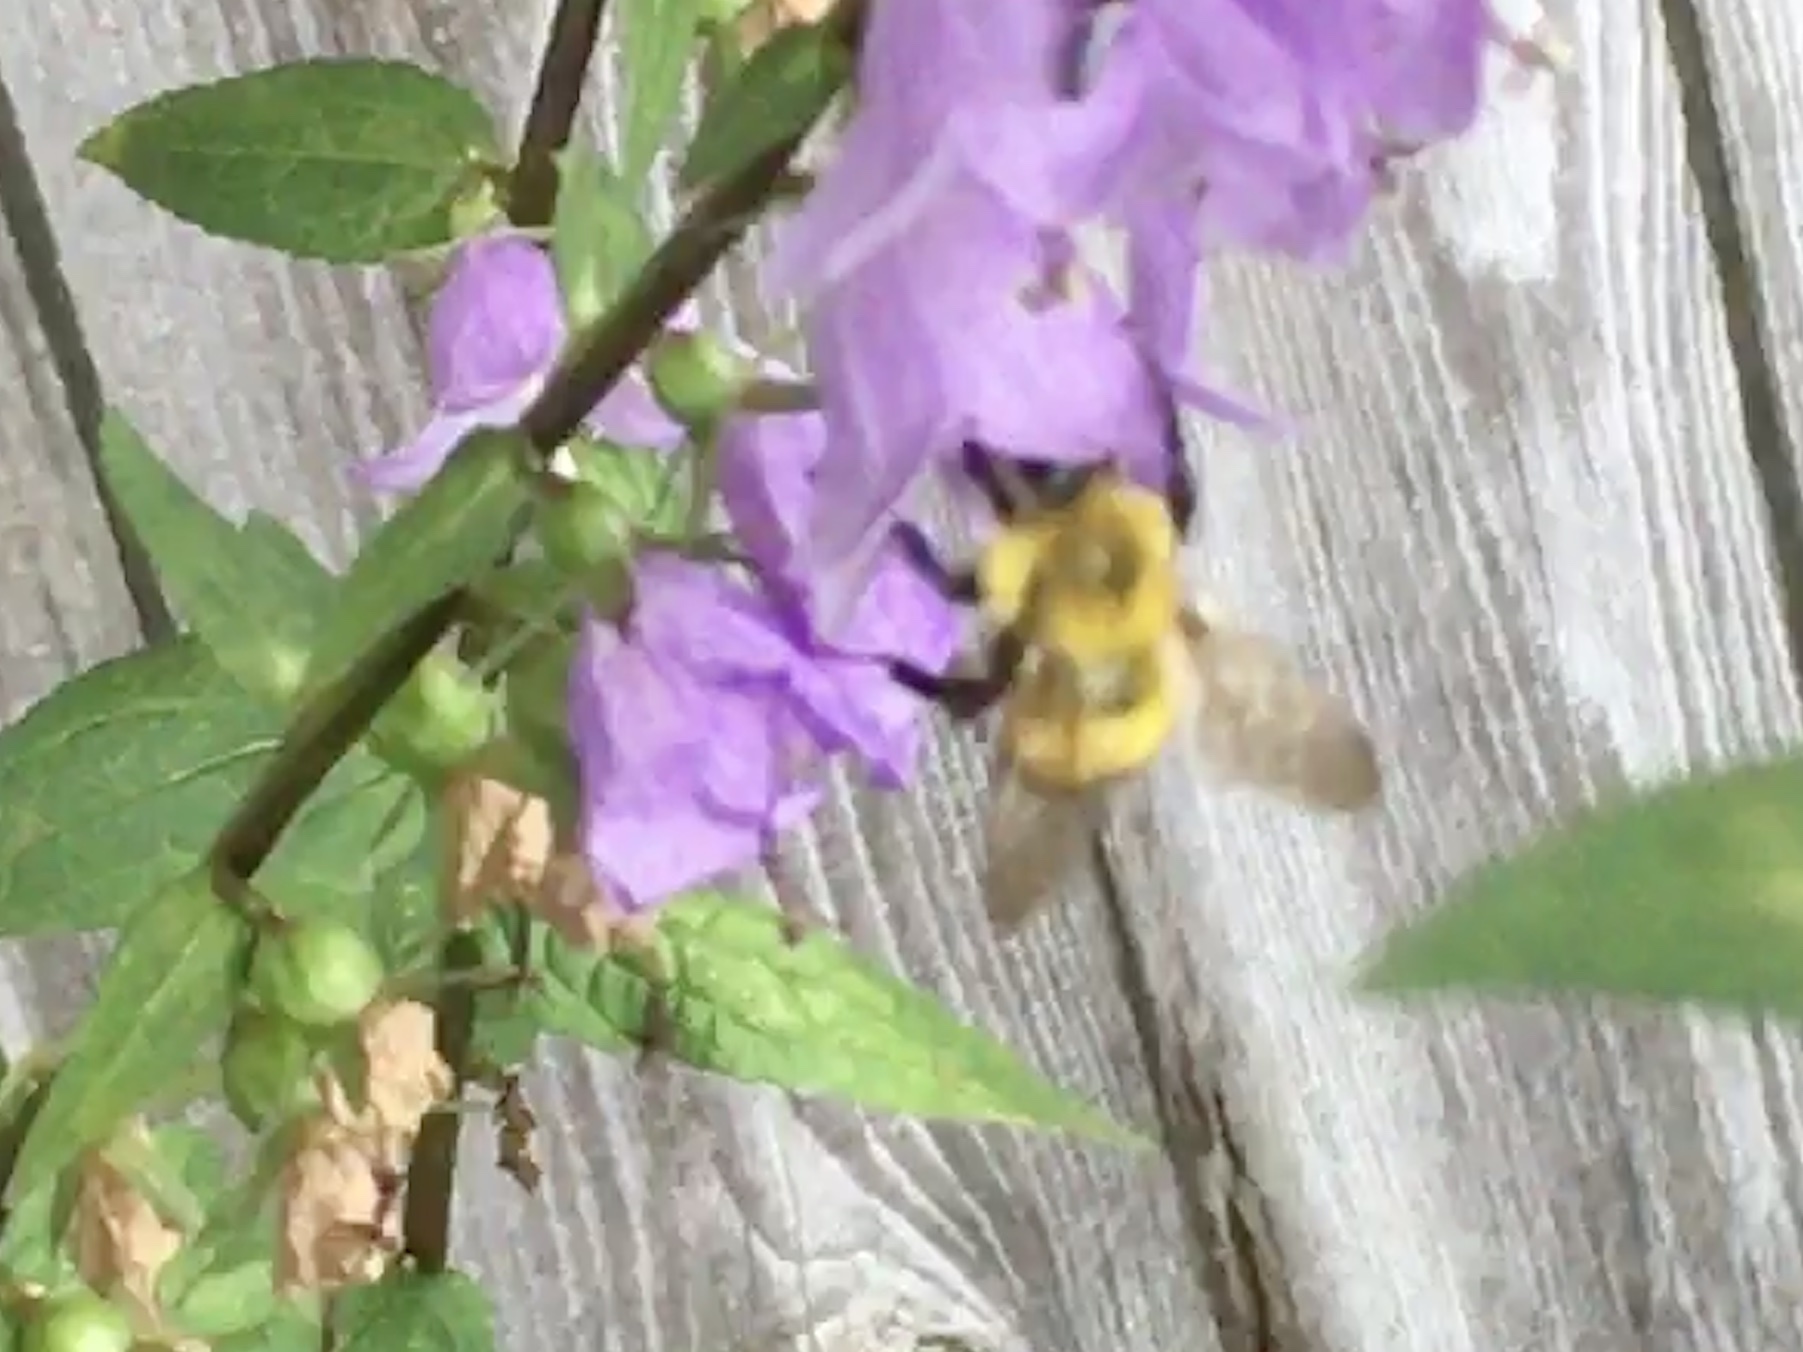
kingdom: Animalia
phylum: Arthropoda
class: Insecta
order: Hymenoptera
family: Apidae
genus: Bombus
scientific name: Bombus perplexus
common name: Confusing bumble bee
